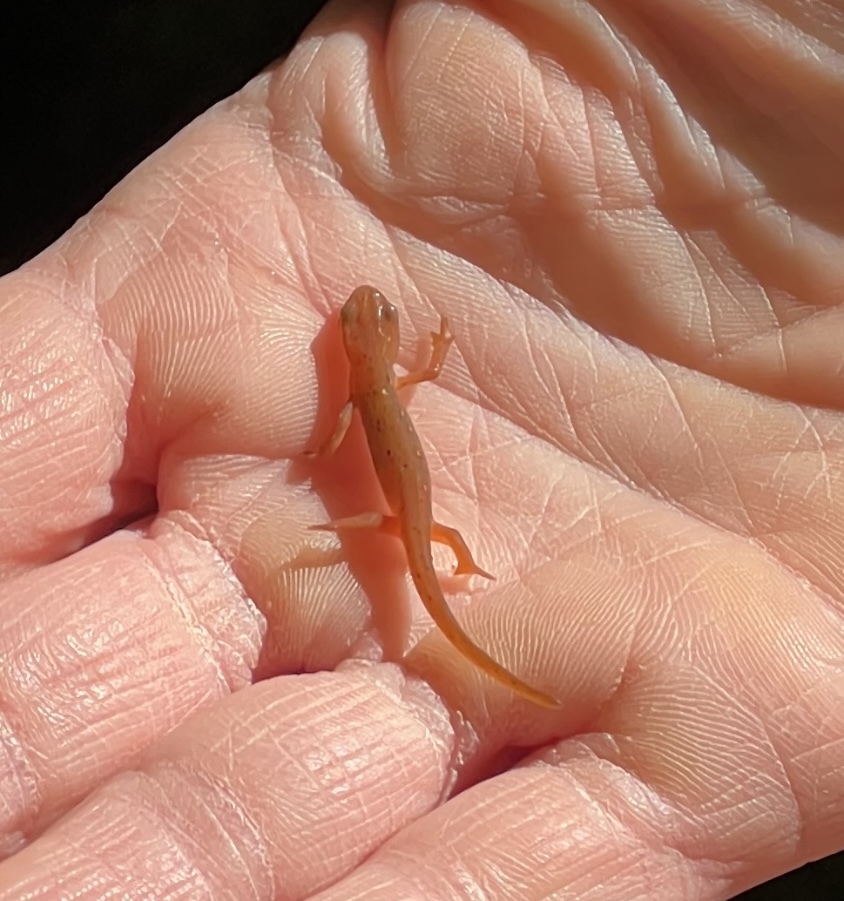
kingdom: Animalia
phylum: Chordata
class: Amphibia
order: Caudata
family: Salamandridae
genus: Notophthalmus
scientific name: Notophthalmus viridescens
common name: Eastern newt
